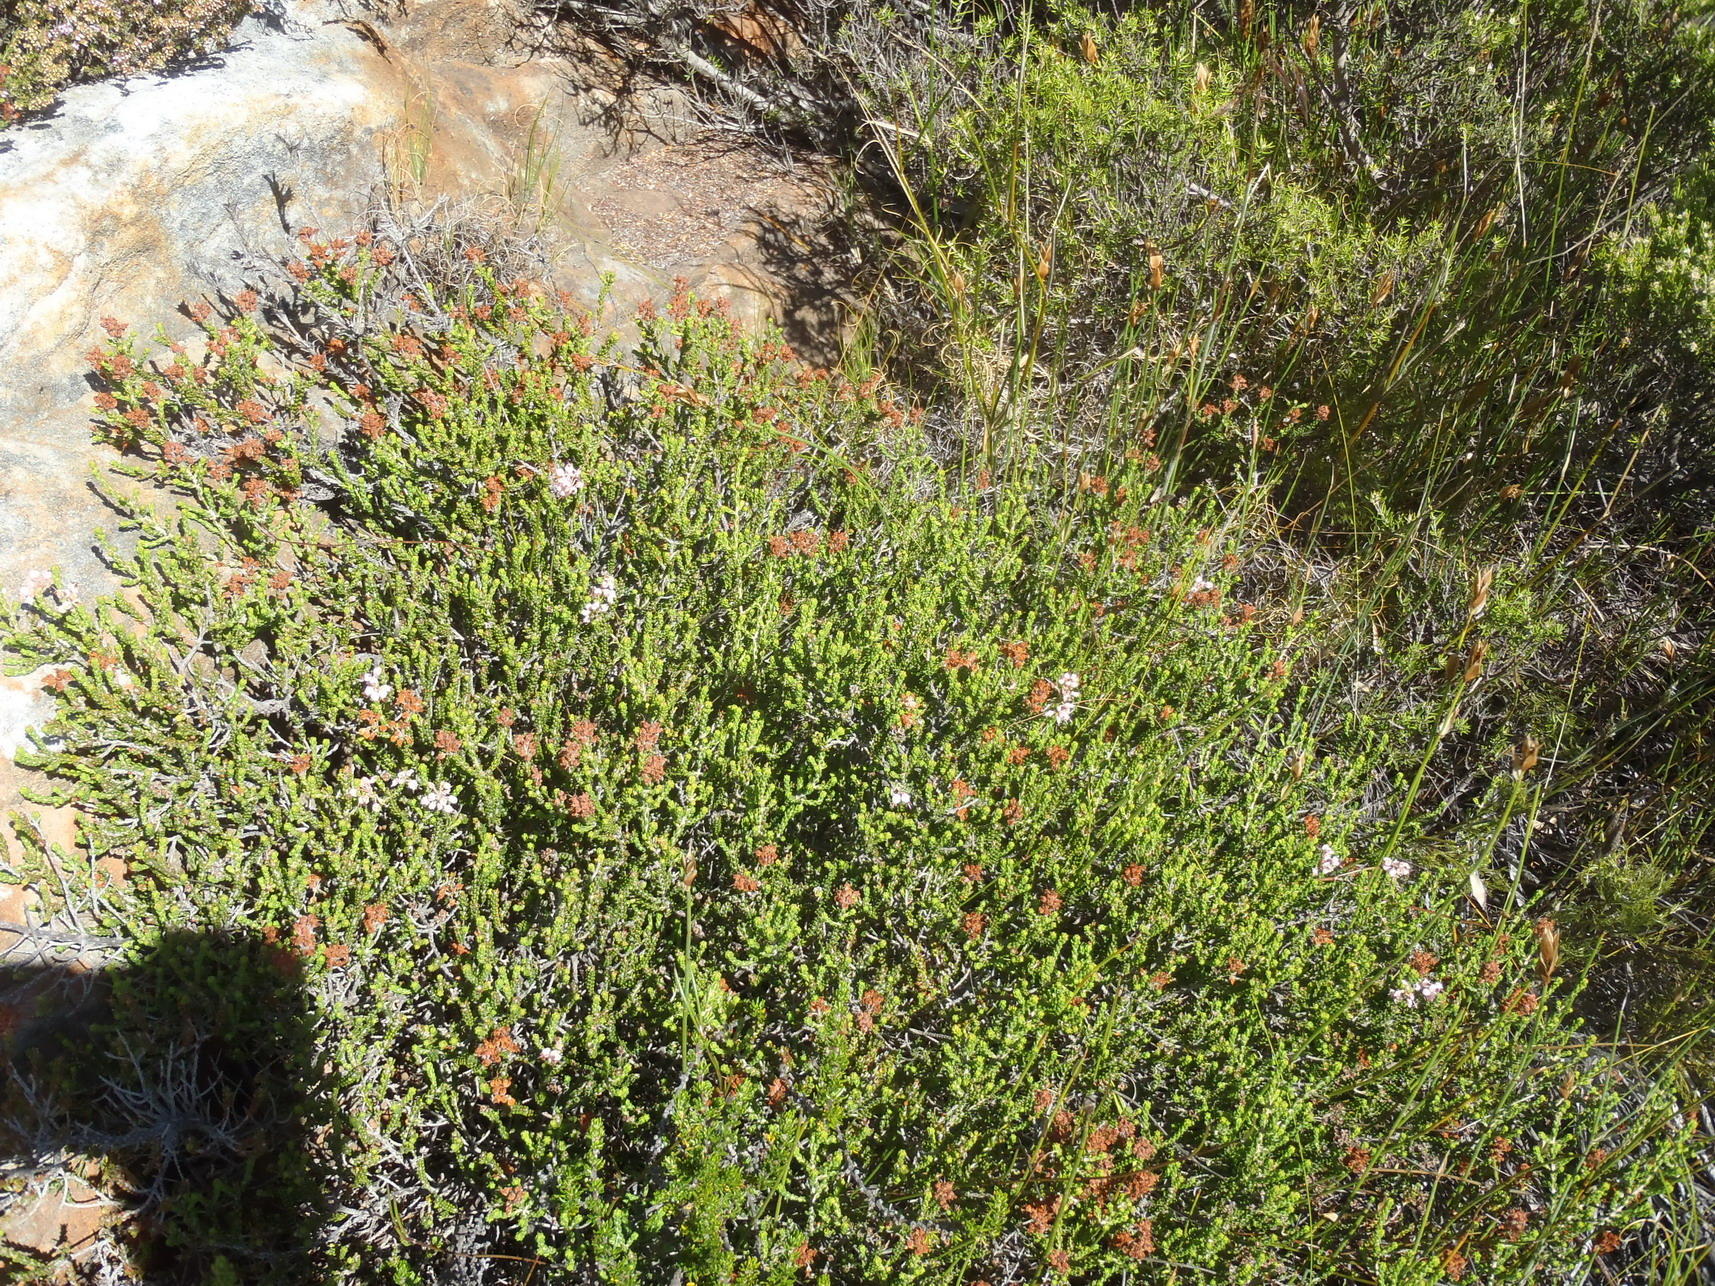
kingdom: Plantae
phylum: Tracheophyta
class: Magnoliopsida
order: Ericales
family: Ericaceae
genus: Erica
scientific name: Erica petraea
